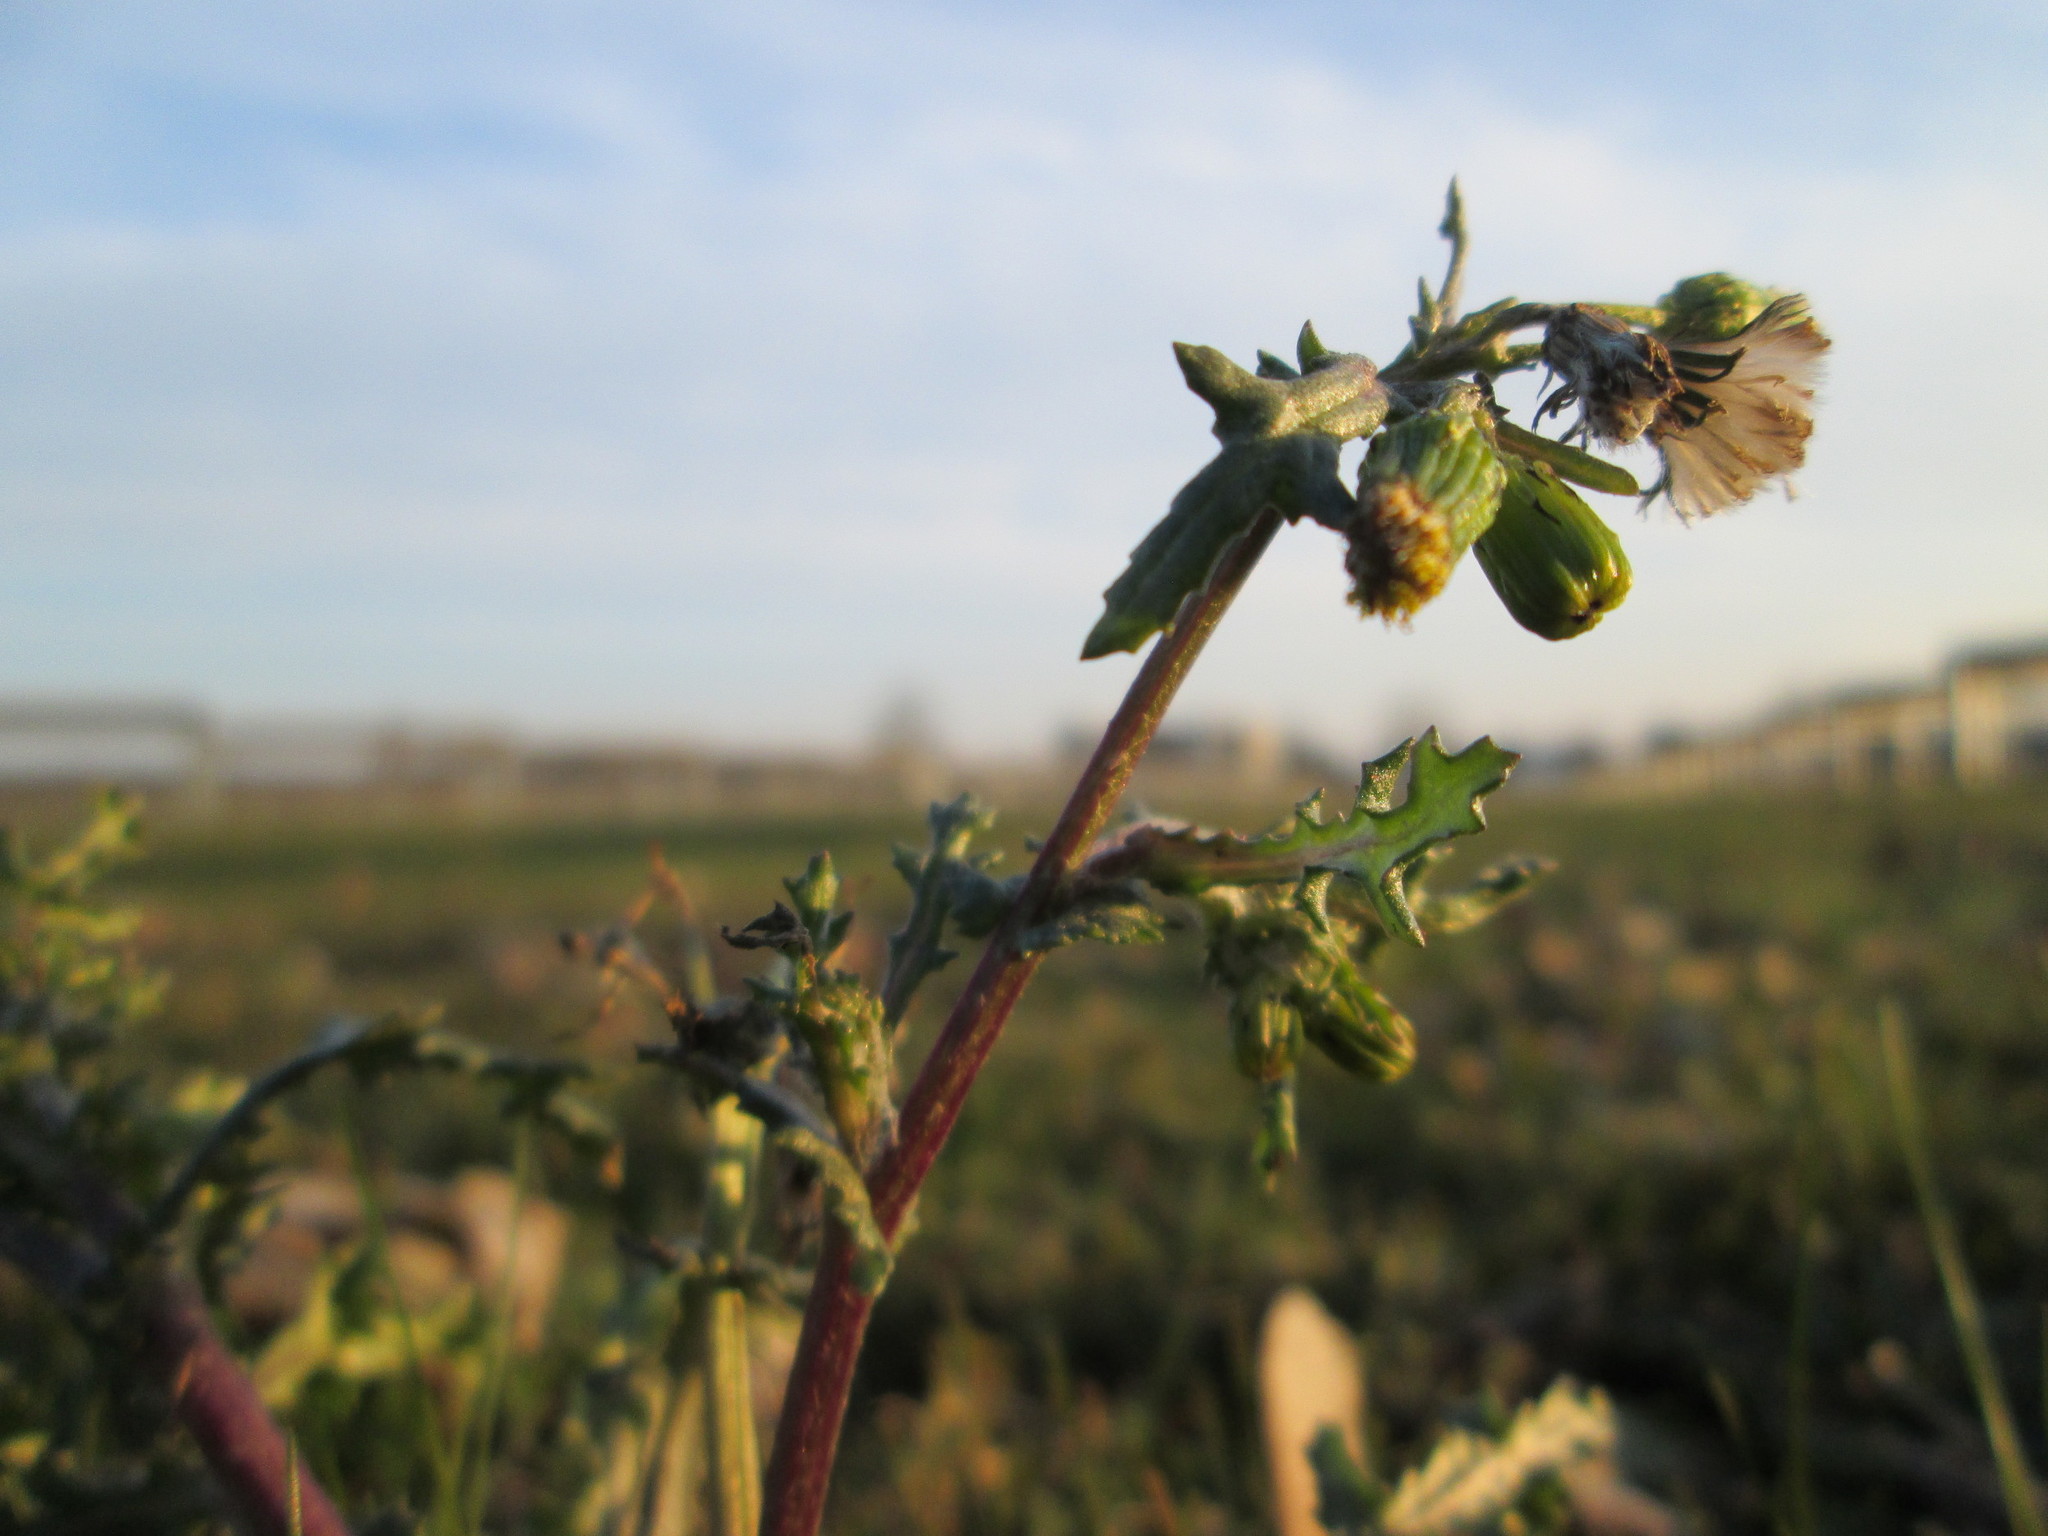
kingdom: Plantae
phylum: Tracheophyta
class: Magnoliopsida
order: Asterales
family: Asteraceae
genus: Senecio
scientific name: Senecio vulgaris
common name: Old-man-in-the-spring
